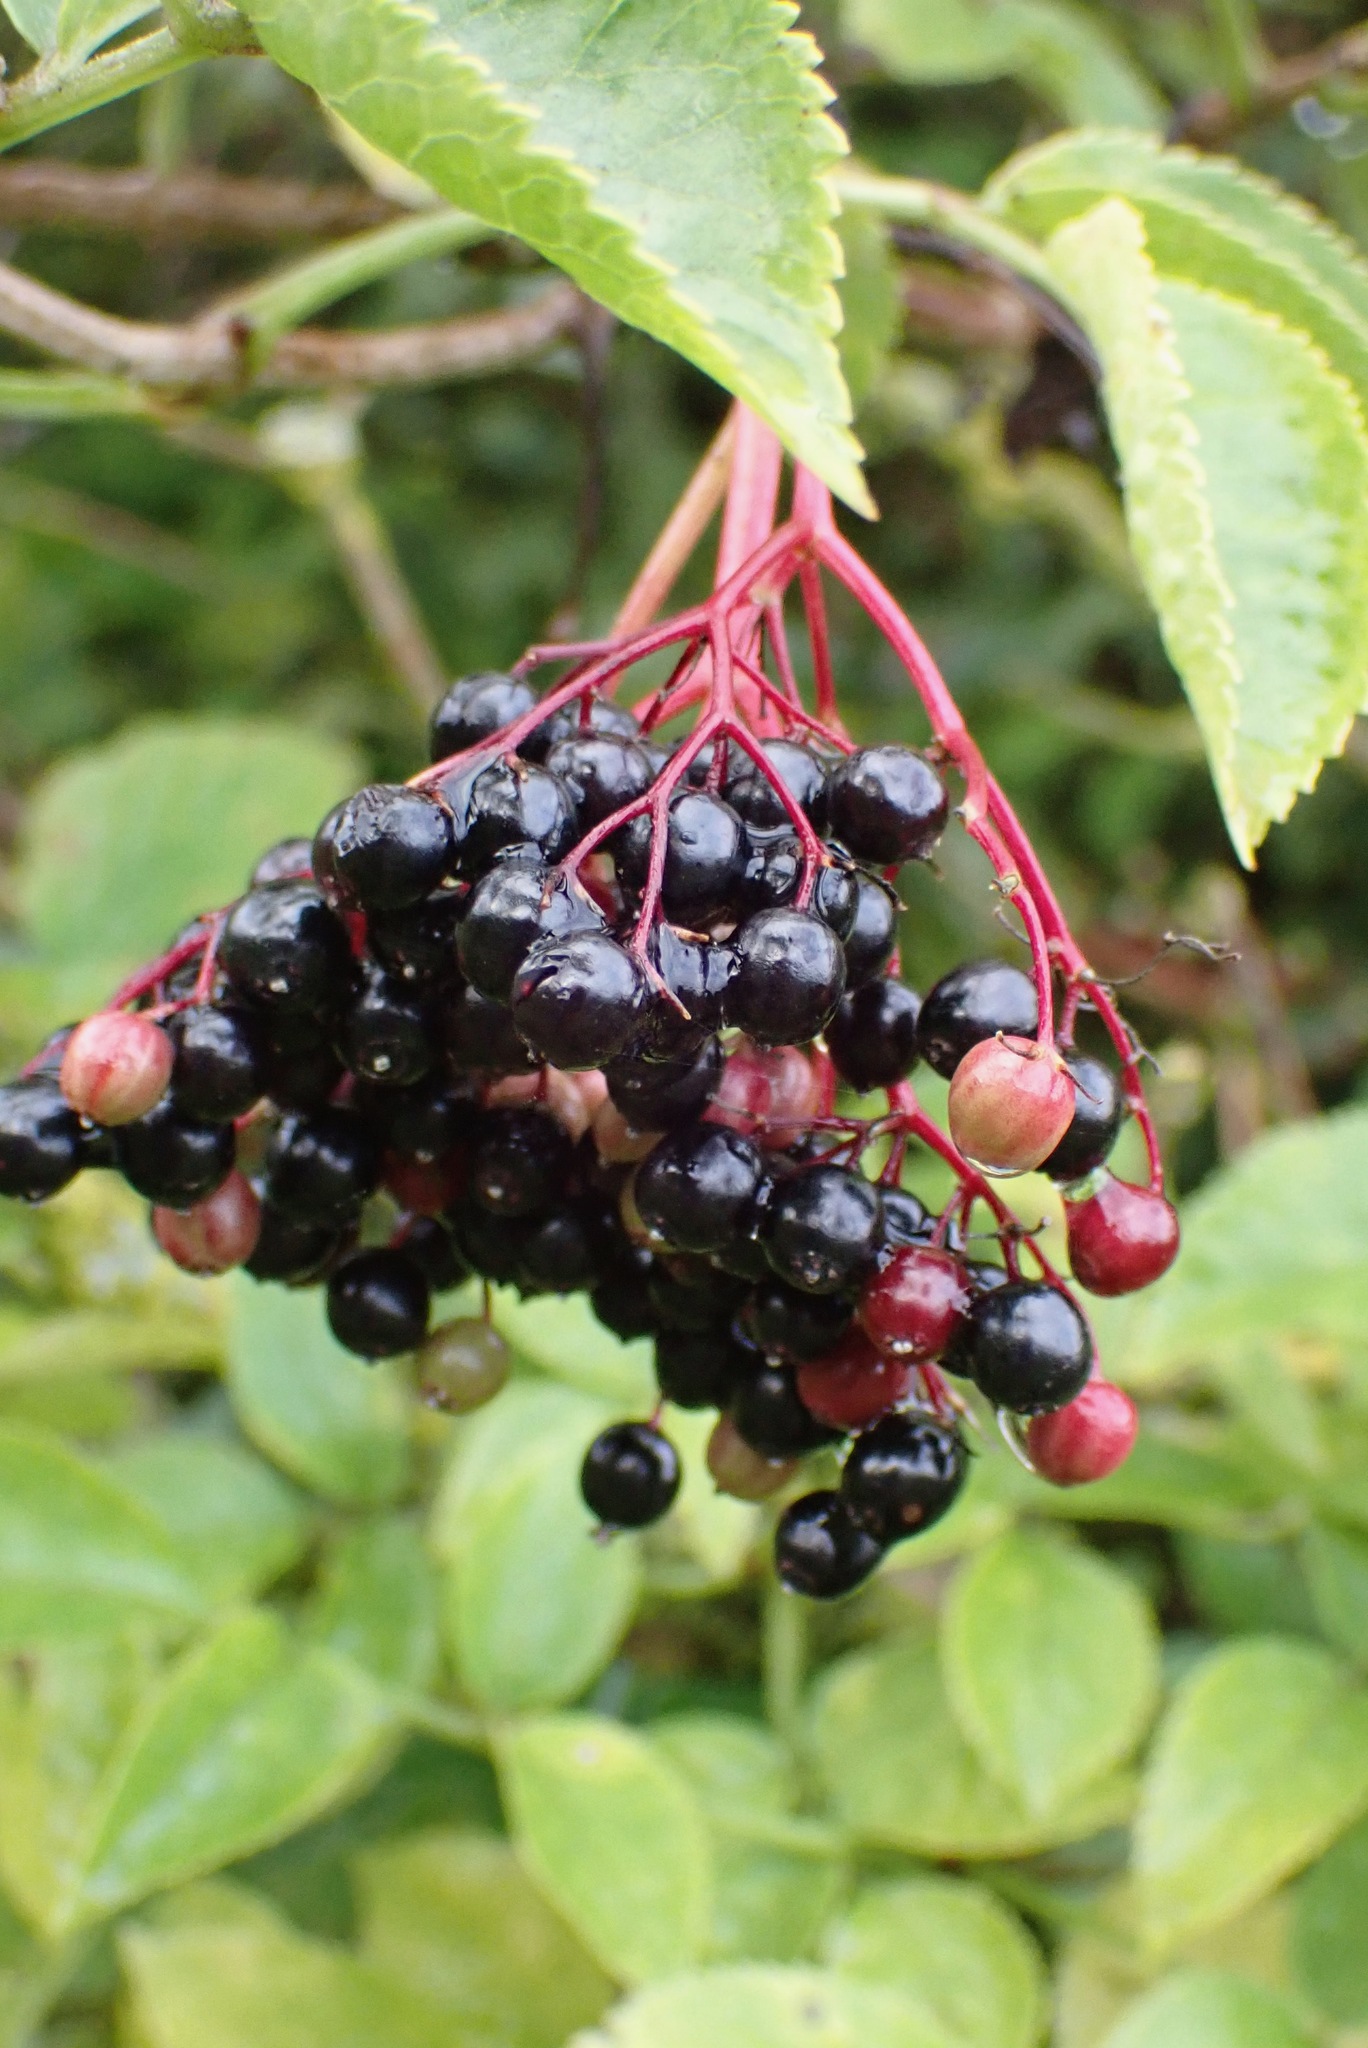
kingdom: Plantae
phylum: Tracheophyta
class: Magnoliopsida
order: Dipsacales
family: Viburnaceae
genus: Sambucus
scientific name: Sambucus nigra
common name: Elder
